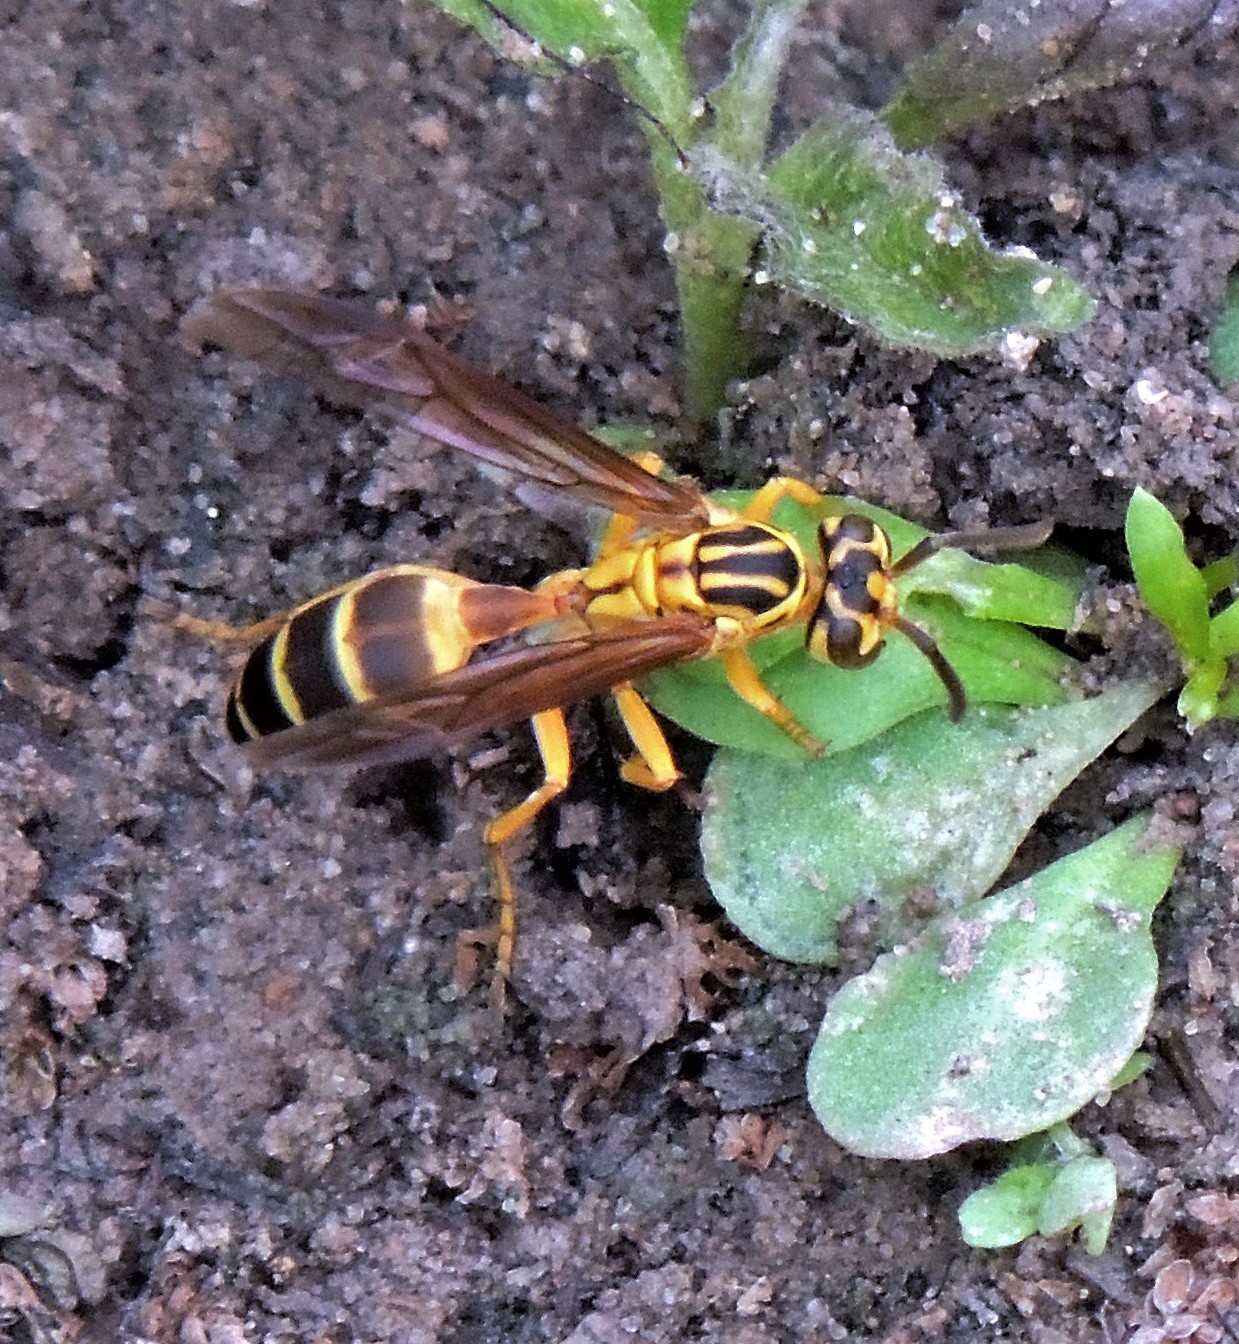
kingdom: Animalia
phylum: Arthropoda
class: Insecta
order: Hymenoptera
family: Vespidae
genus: Agelaia
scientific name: Agelaia
